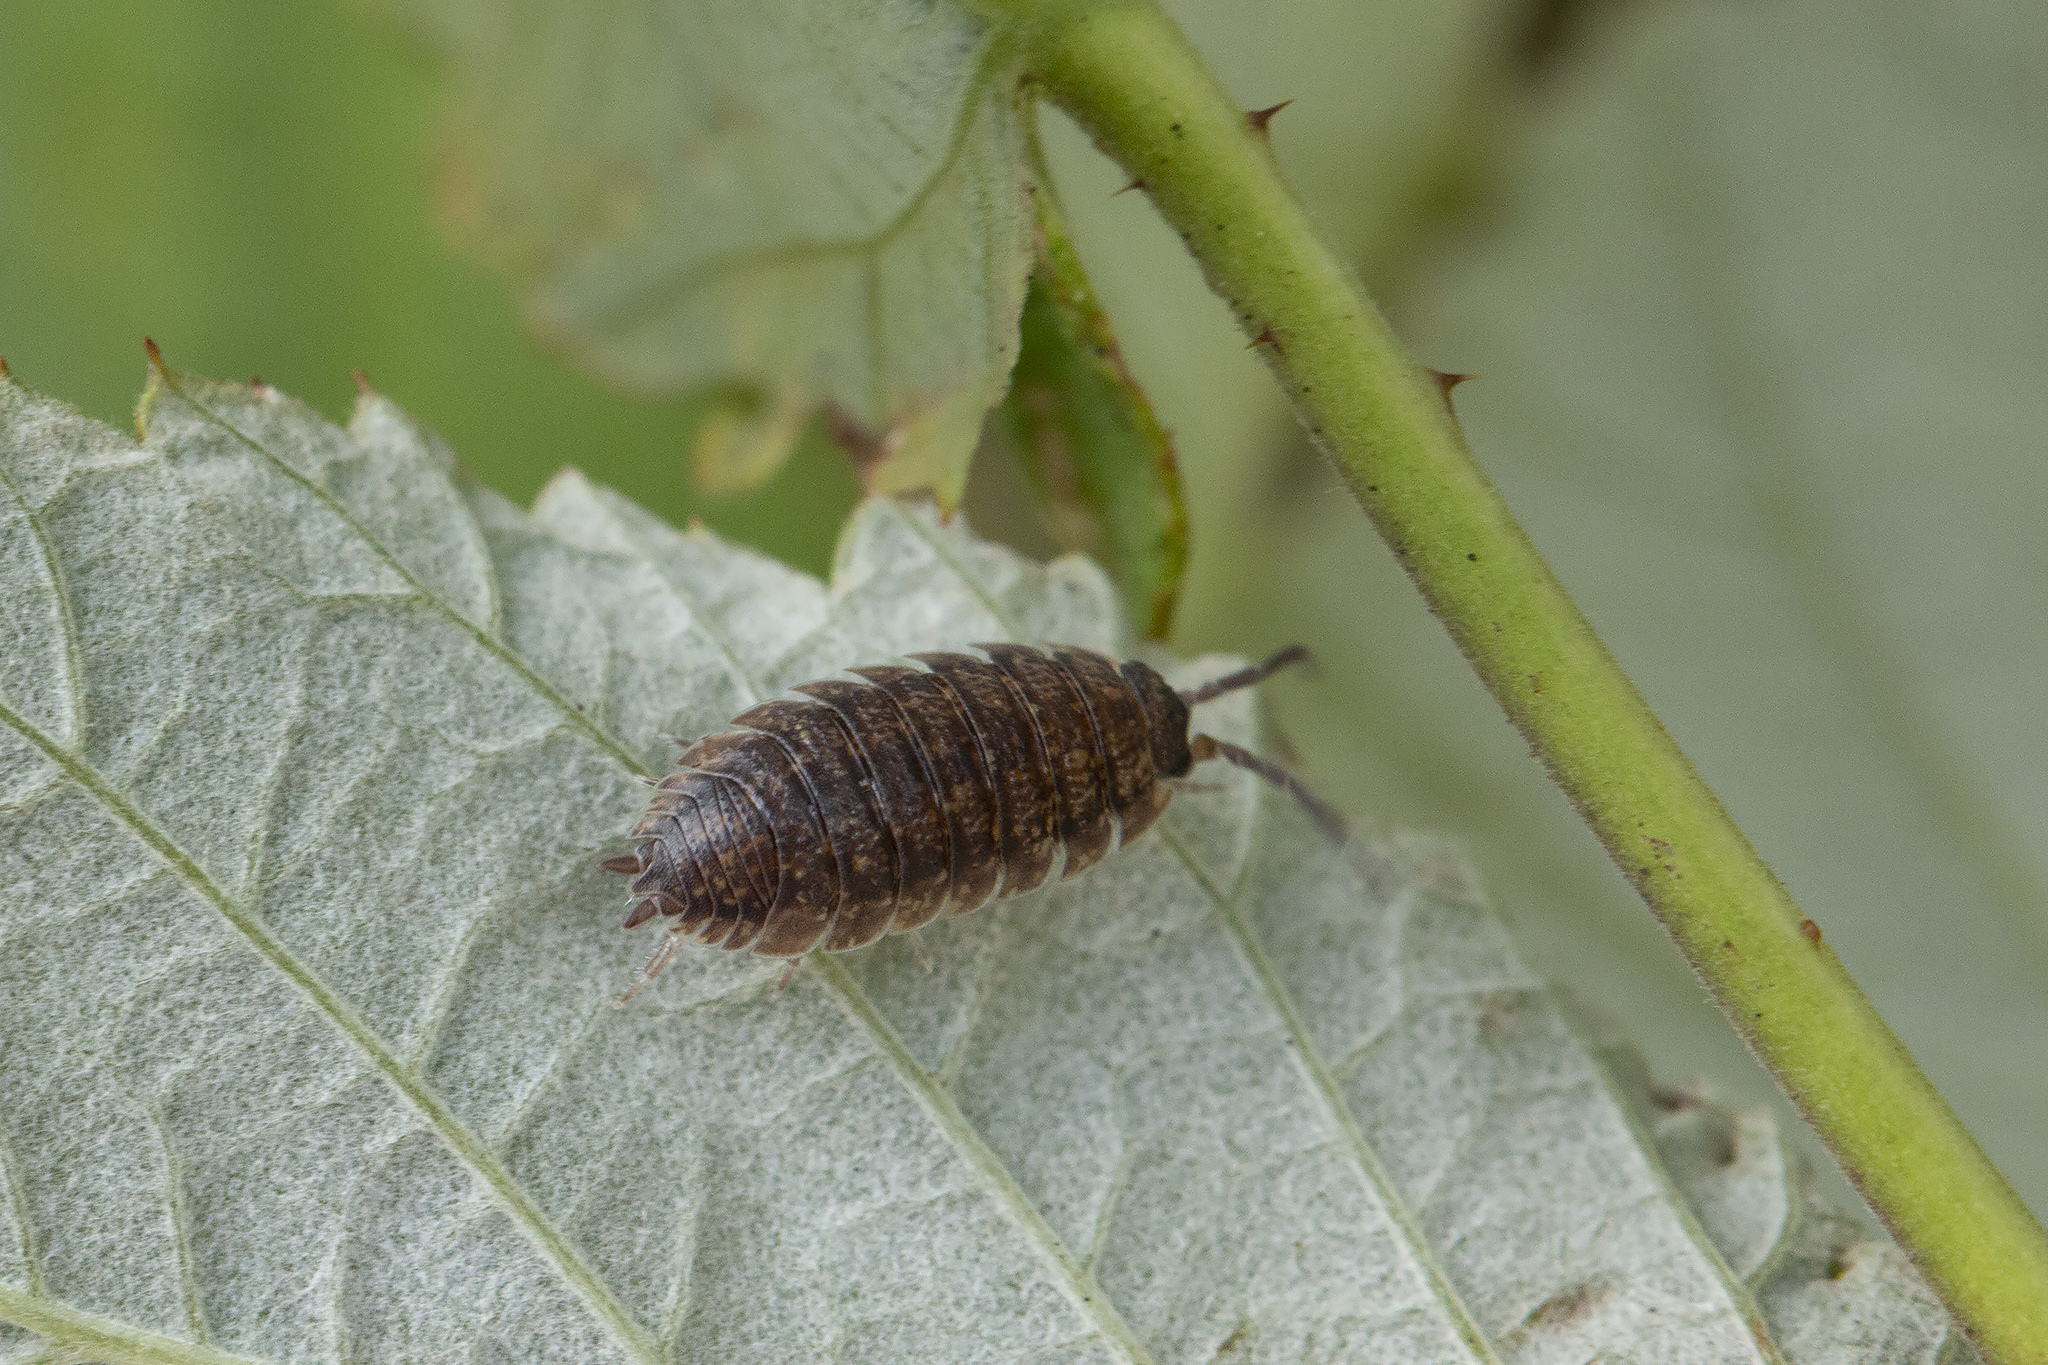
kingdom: Animalia
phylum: Arthropoda
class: Malacostraca
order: Isopoda
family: Porcellionidae
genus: Porcellio
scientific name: Porcellio scaber
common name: Common rough woodlouse
